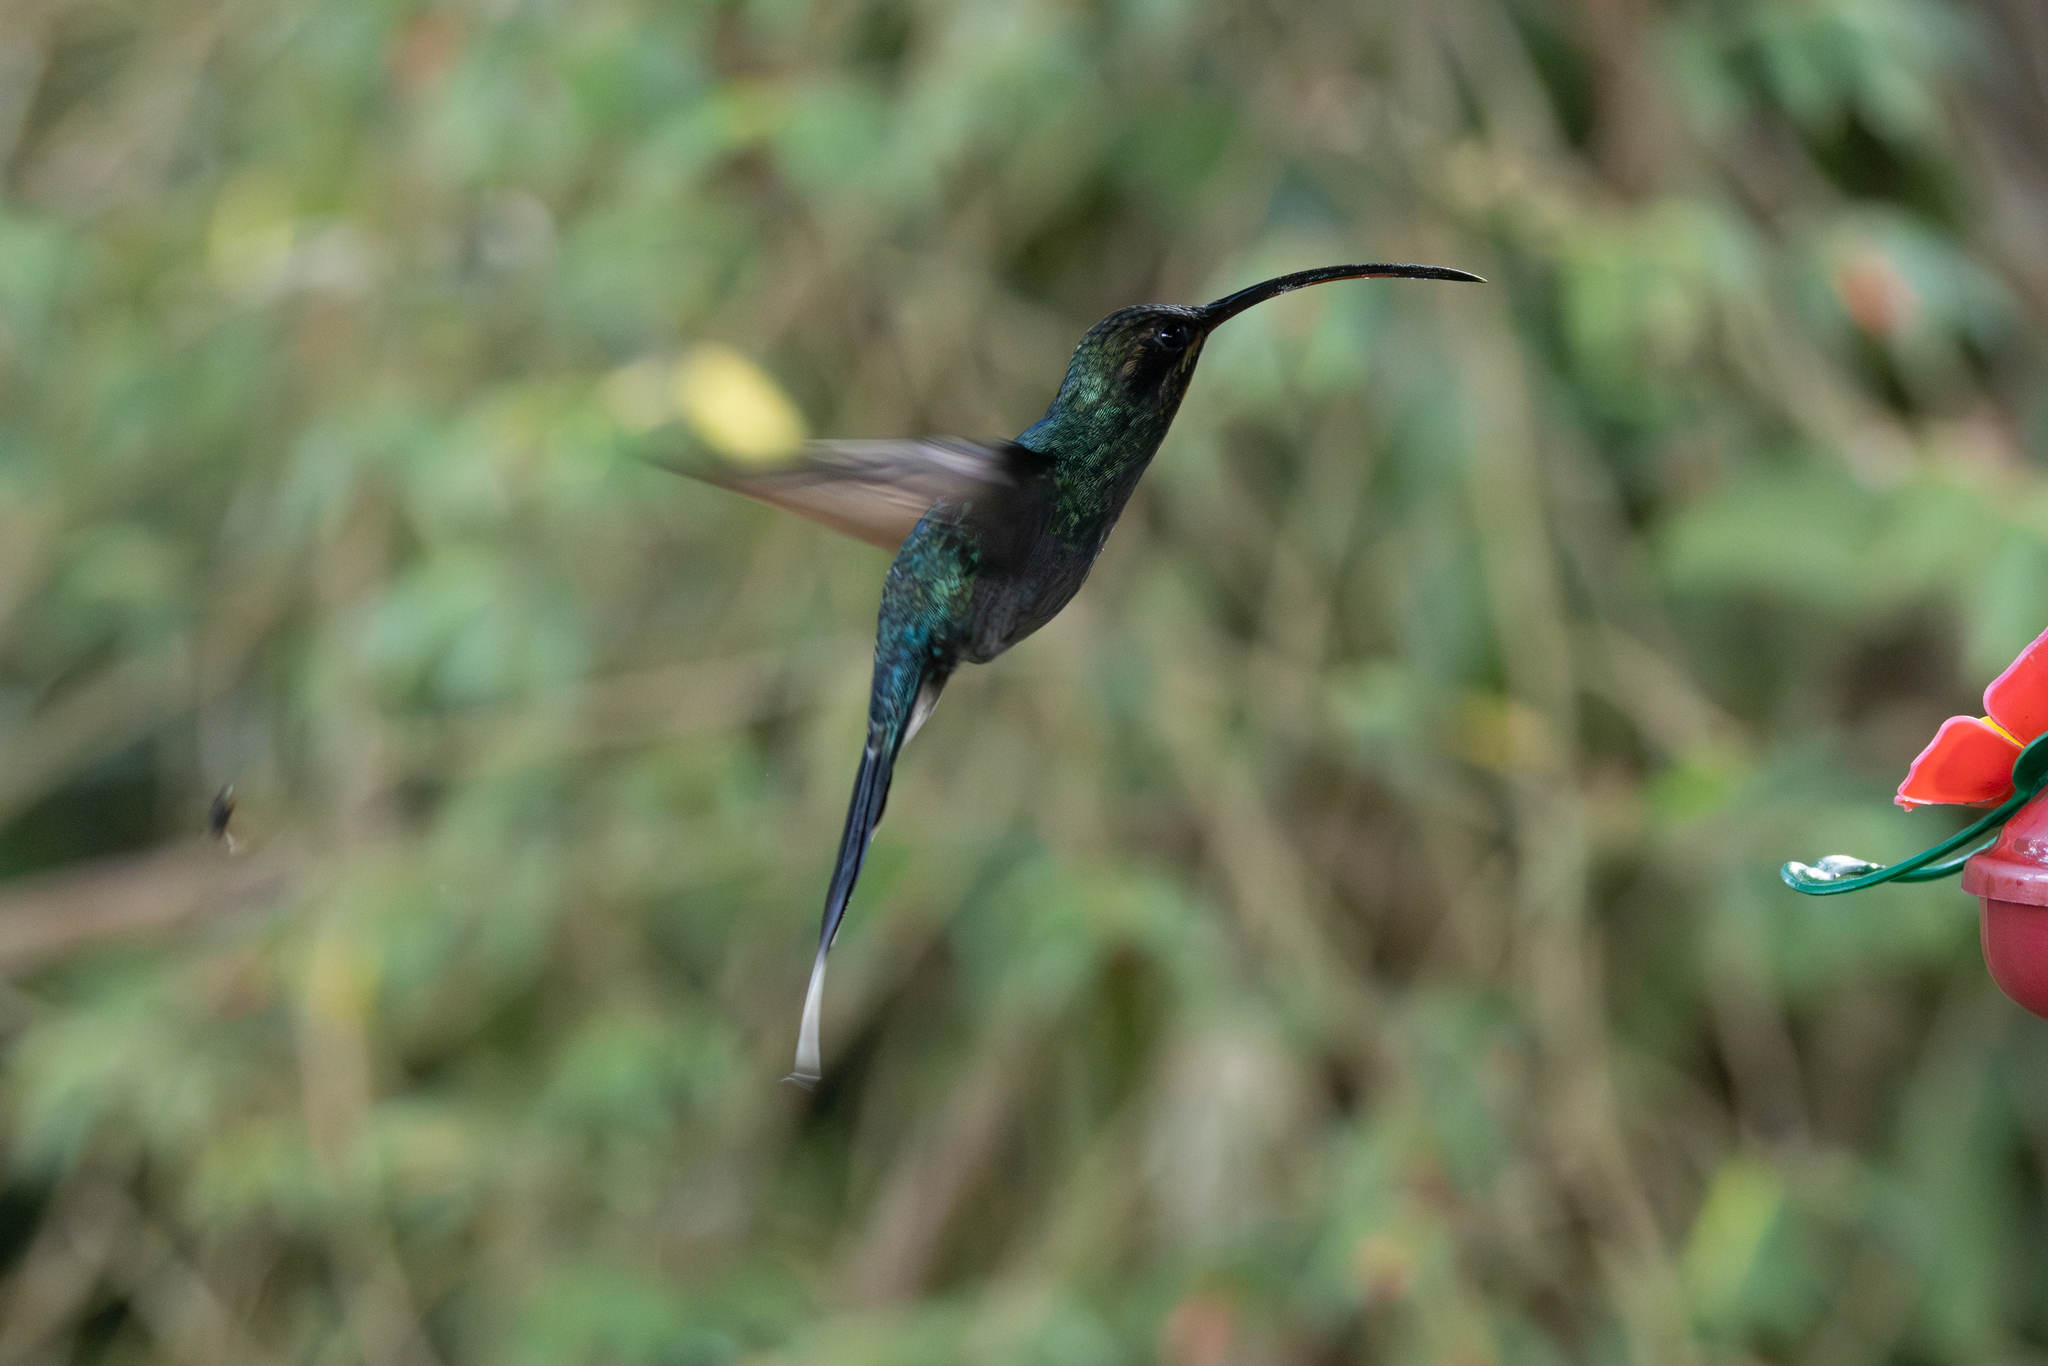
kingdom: Animalia
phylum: Chordata
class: Aves
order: Apodiformes
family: Trochilidae
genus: Phaethornis
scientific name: Phaethornis guy
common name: Green hermit
